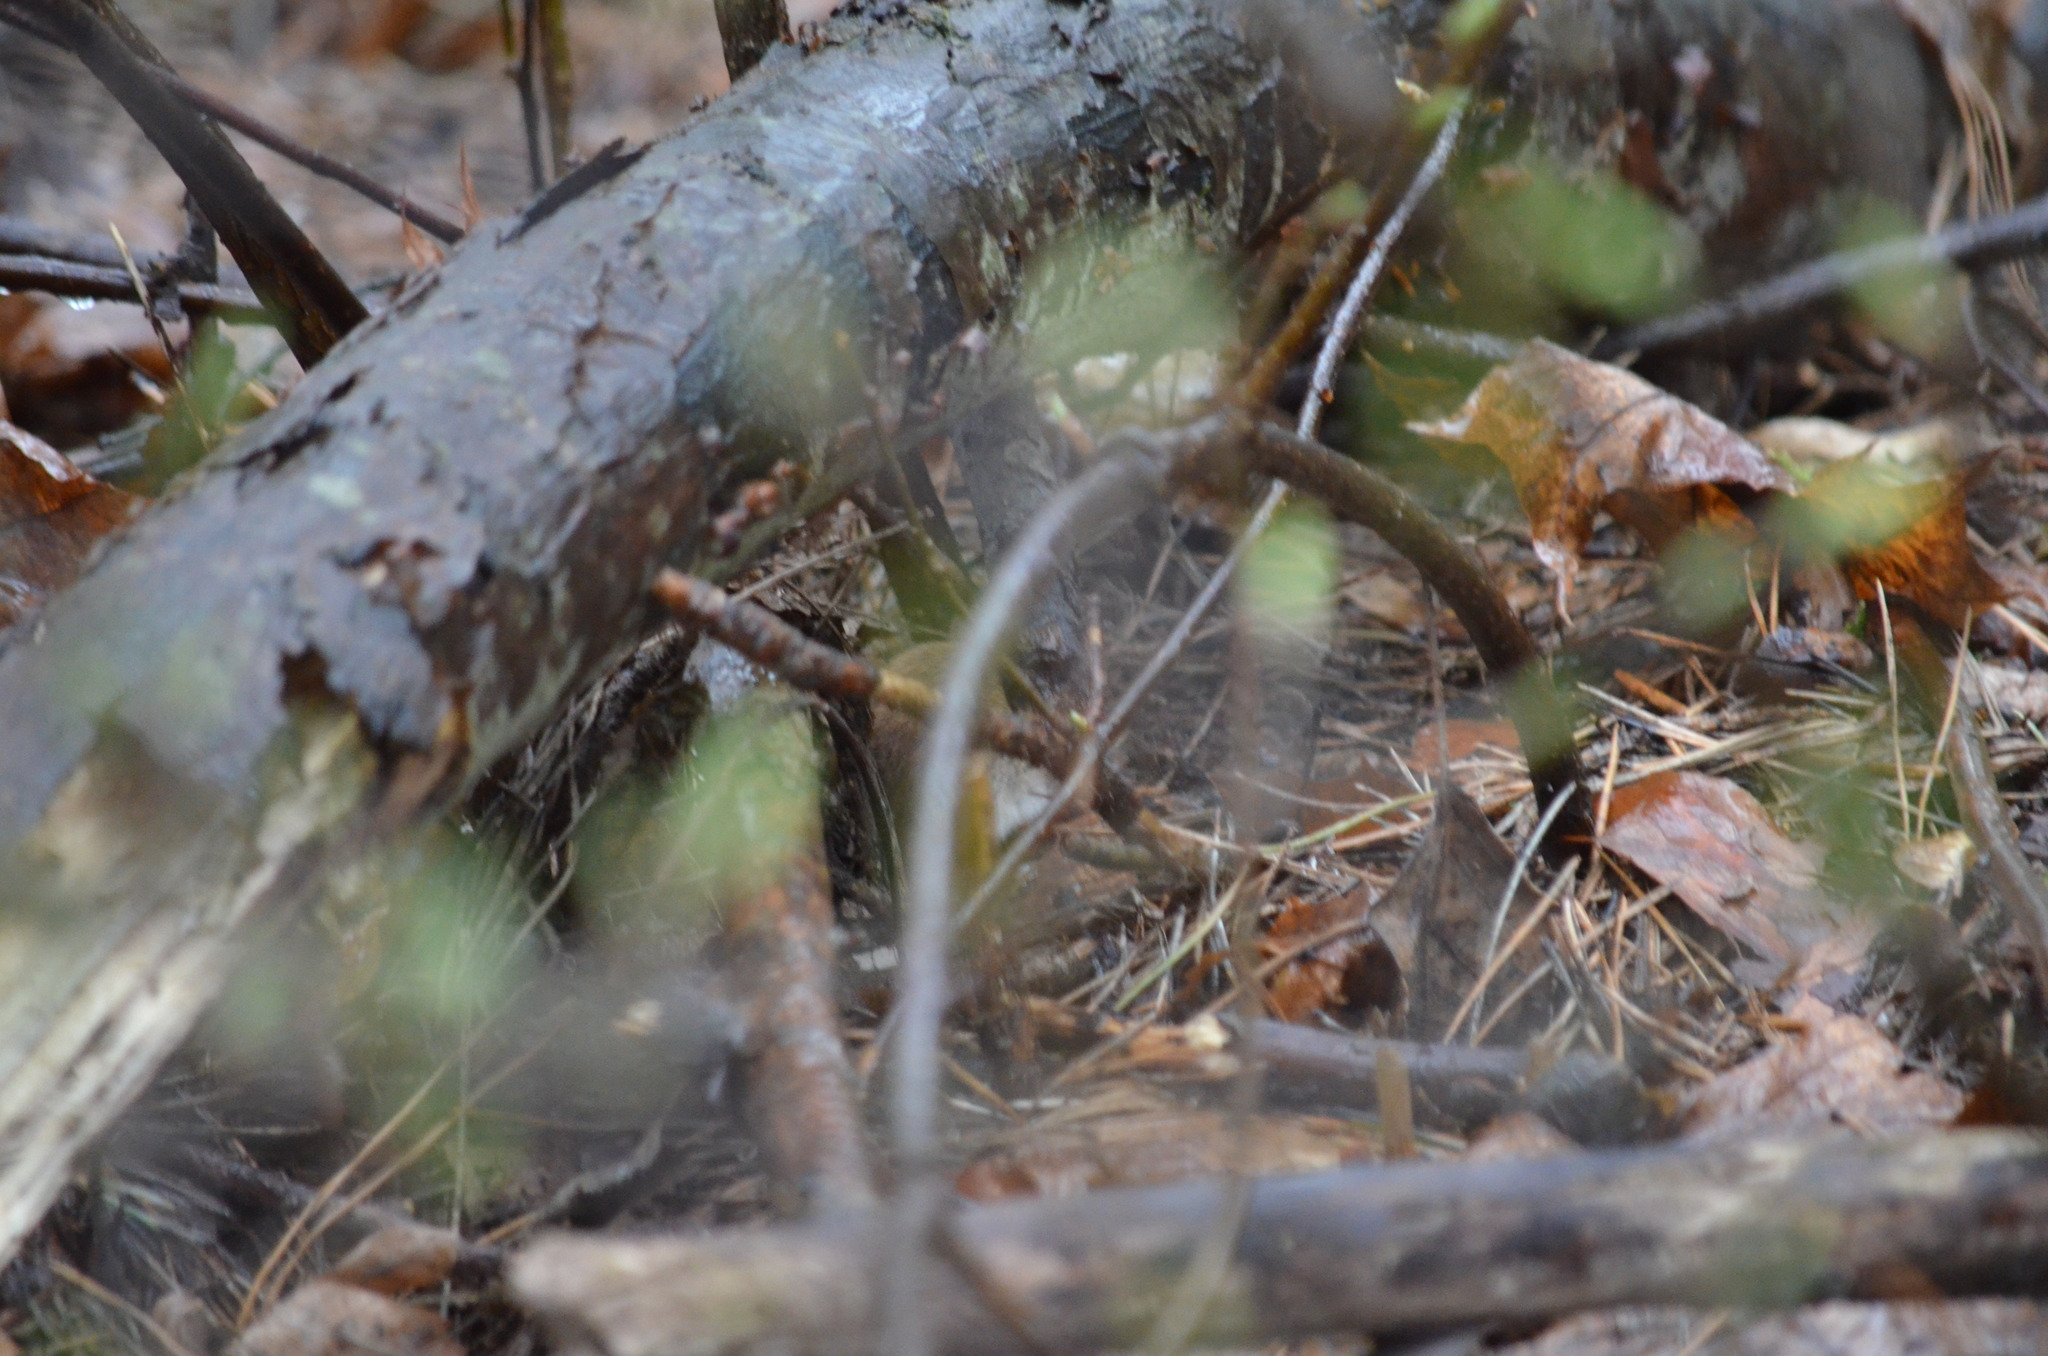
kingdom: Animalia
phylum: Chordata
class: Mammalia
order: Rodentia
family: Cricetidae
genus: Myodes
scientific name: Myodes glareolus
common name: Bank vole
